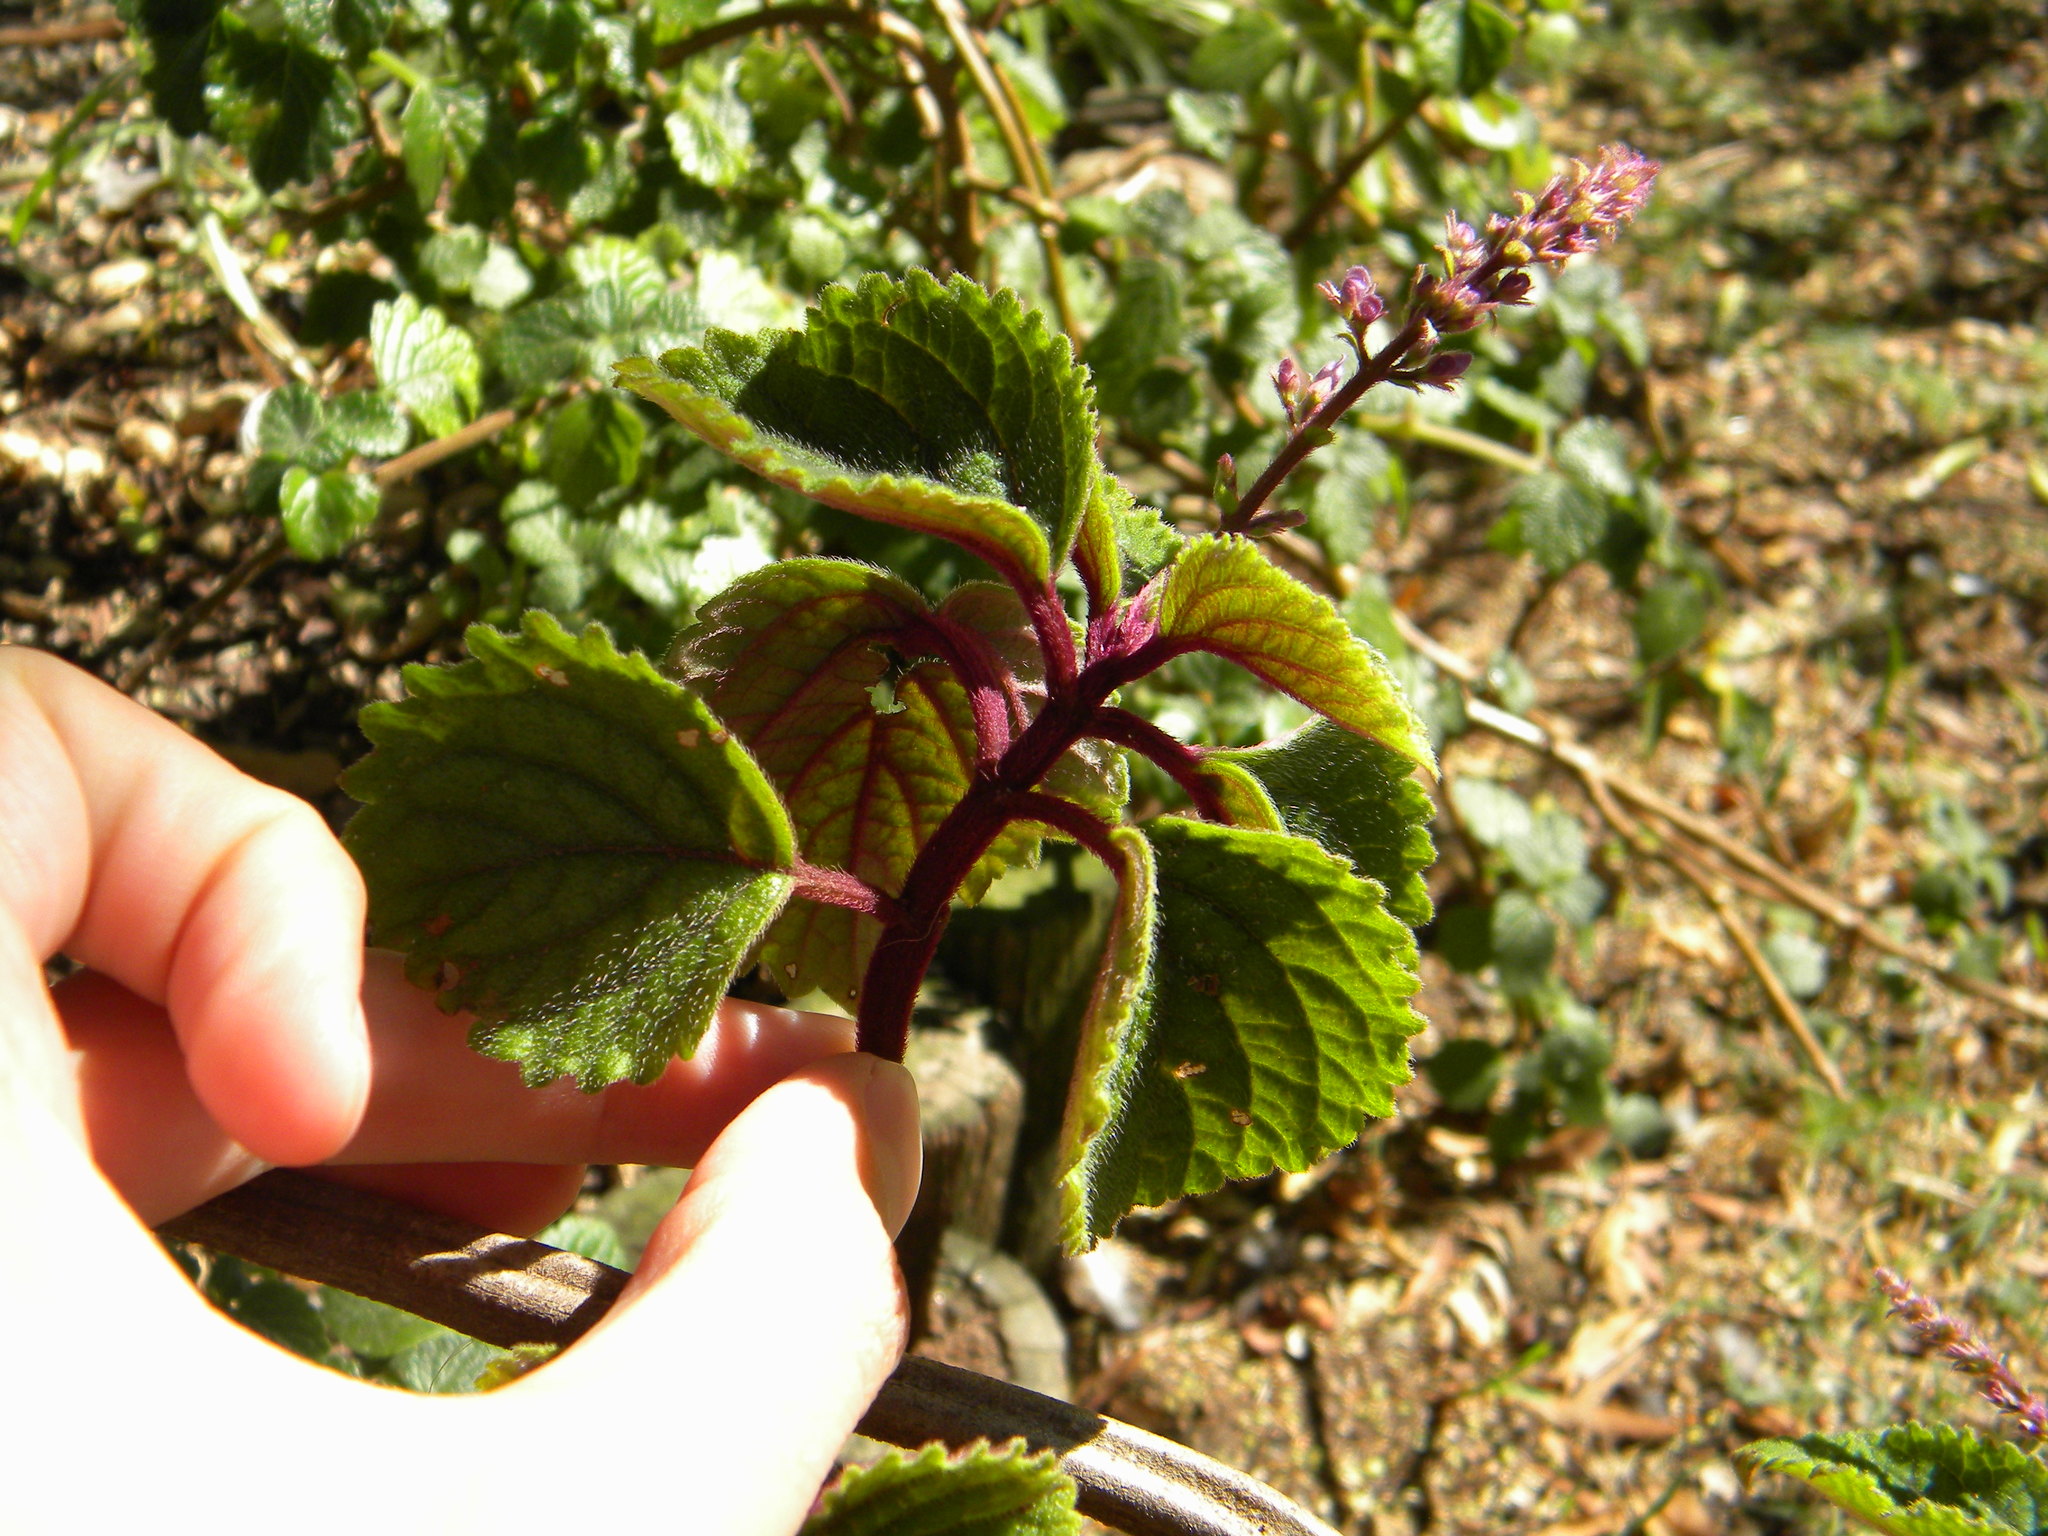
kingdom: Plantae
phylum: Tracheophyta
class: Magnoliopsida
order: Lamiales
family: Lamiaceae
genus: Plectranthus
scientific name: Plectranthus ciliatus
